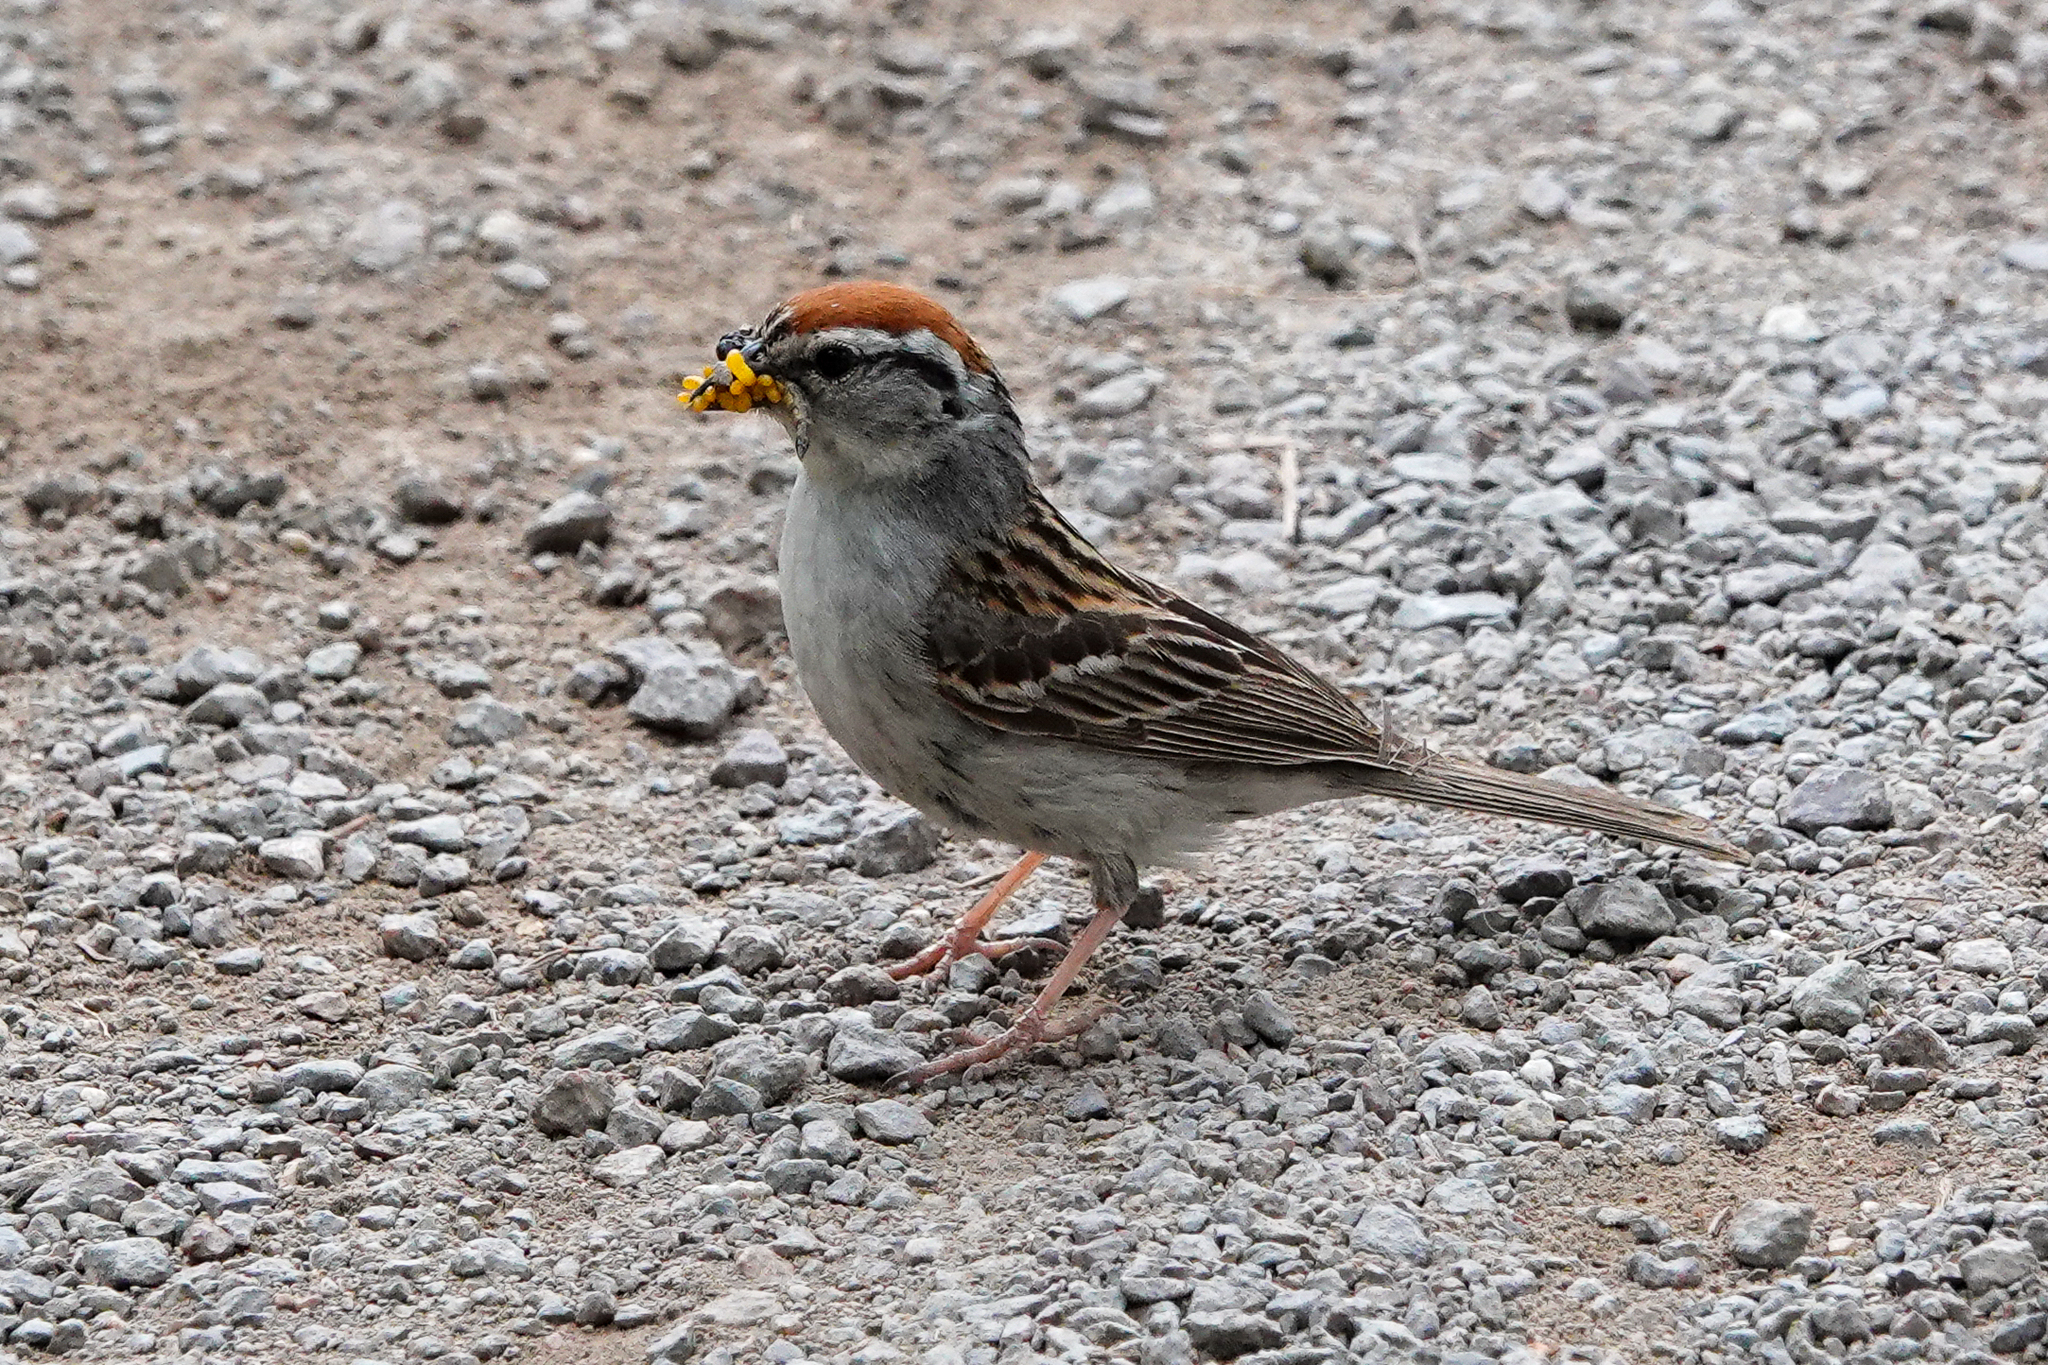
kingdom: Animalia
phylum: Chordata
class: Aves
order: Passeriformes
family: Passerellidae
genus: Spizella
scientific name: Spizella passerina
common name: Chipping sparrow
